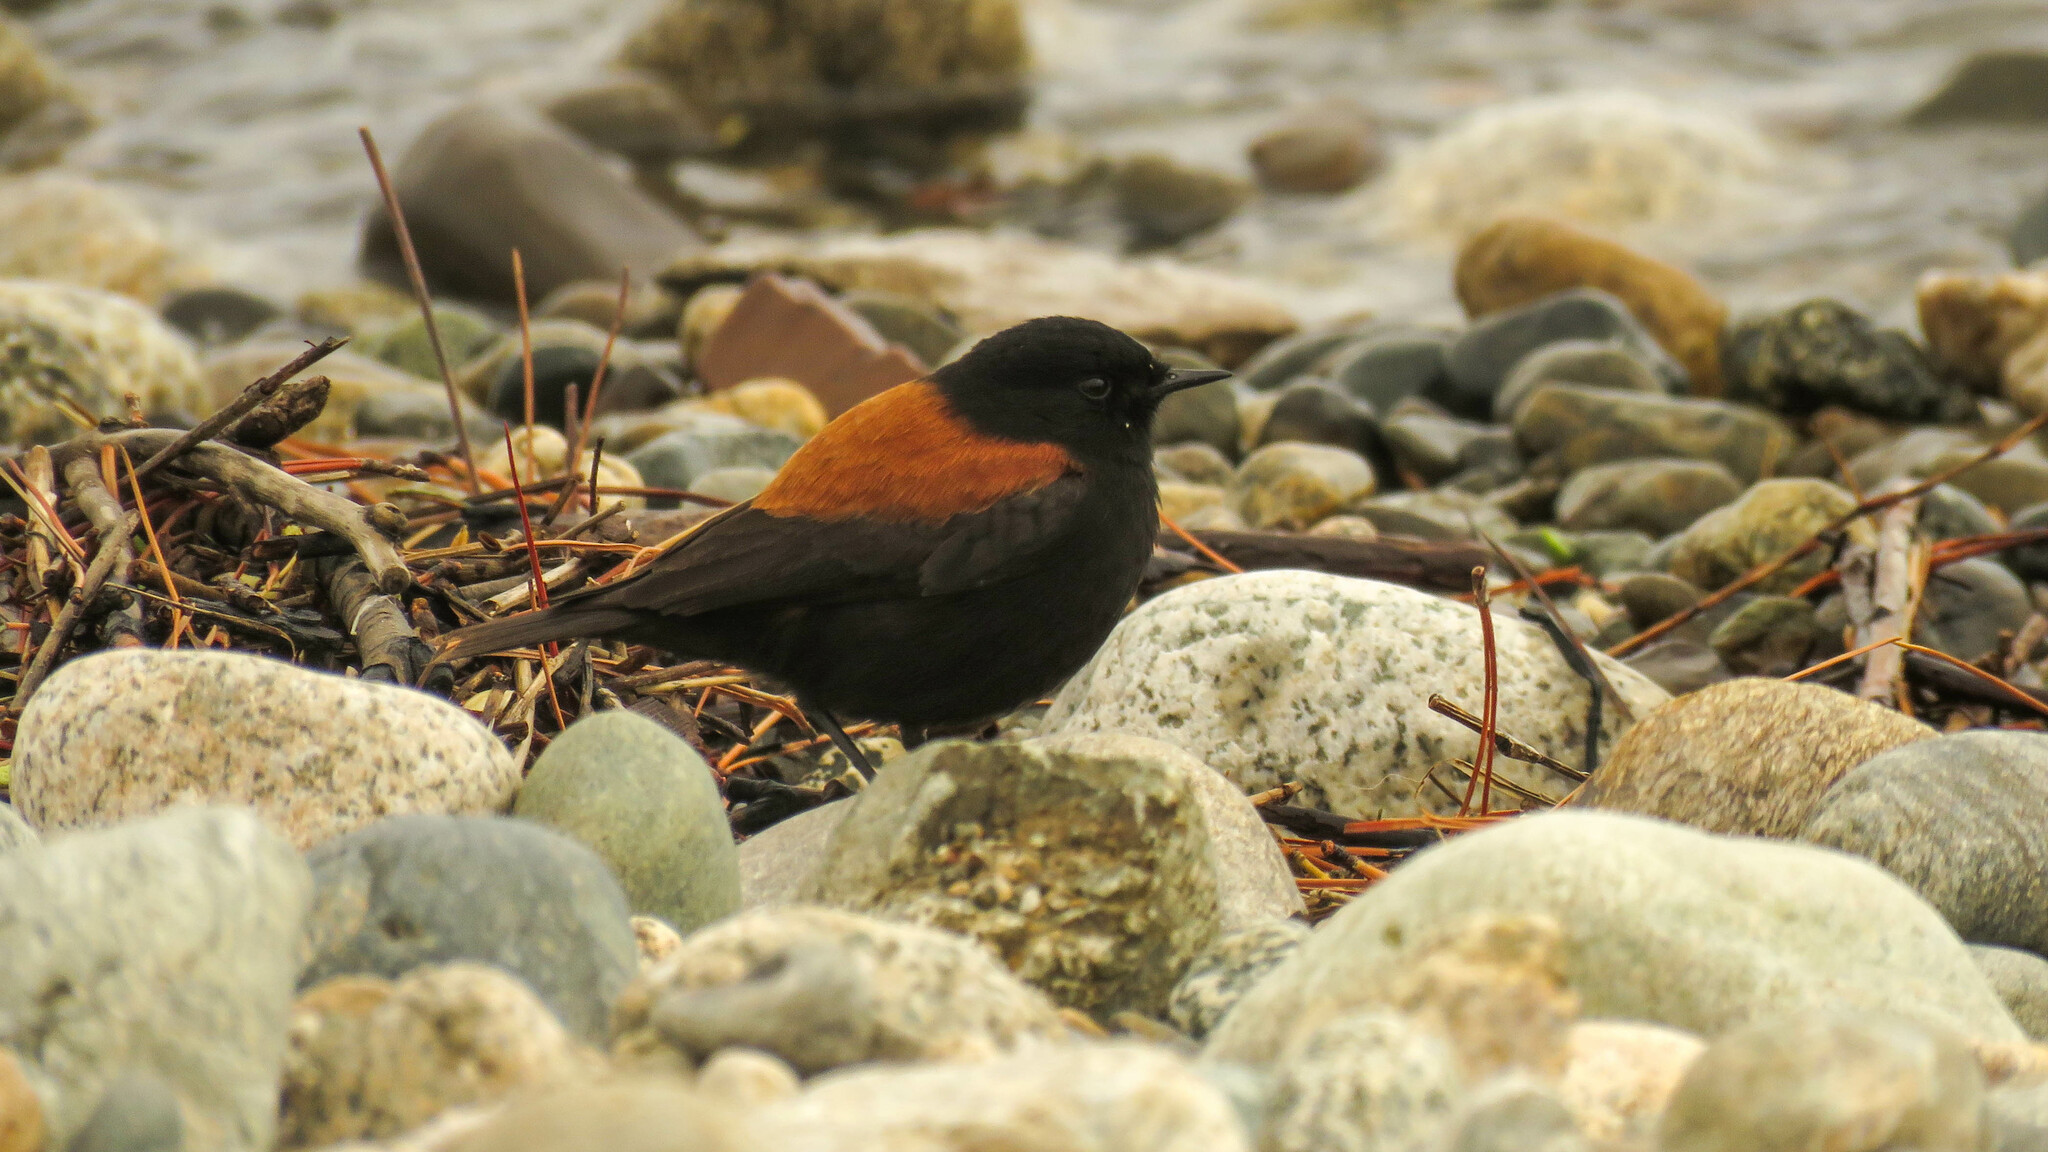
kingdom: Animalia
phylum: Chordata
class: Aves
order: Passeriformes
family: Tyrannidae
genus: Lessonia
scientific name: Lessonia rufa
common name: Austral negrito
